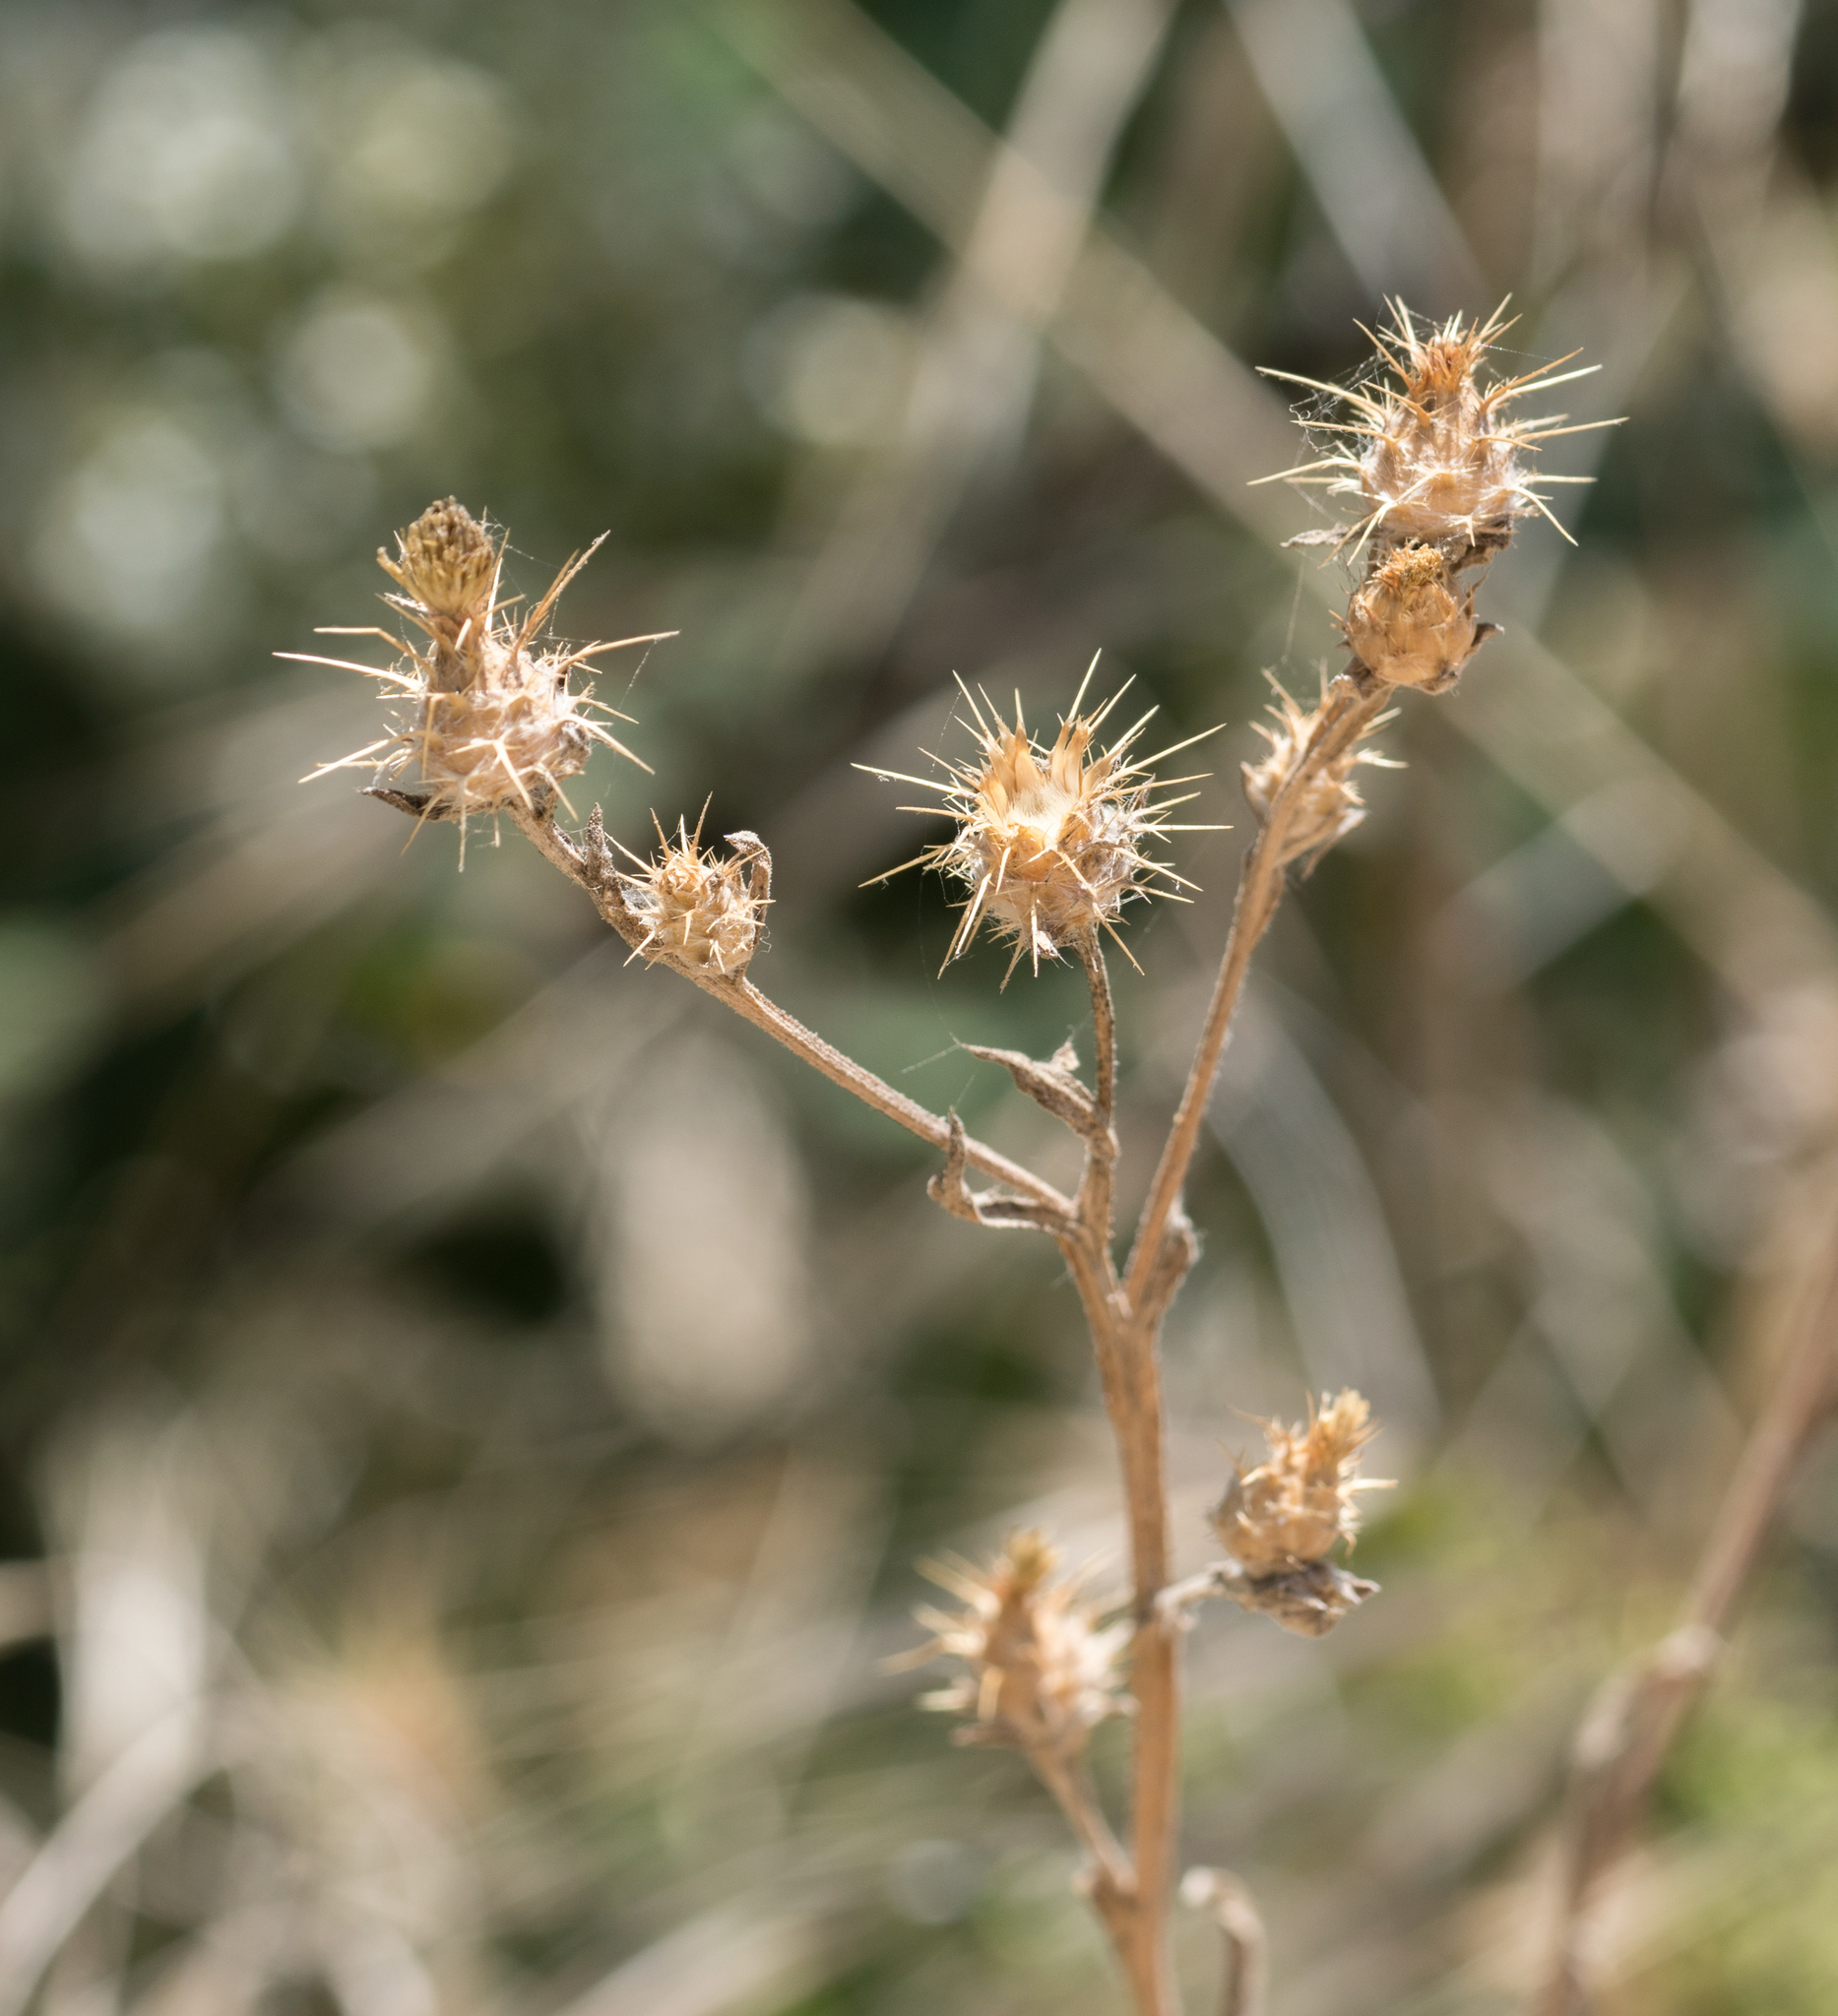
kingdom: Plantae
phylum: Tracheophyta
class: Magnoliopsida
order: Asterales
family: Asteraceae
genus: Centaurea
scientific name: Centaurea melitensis
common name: Maltese star-thistle
